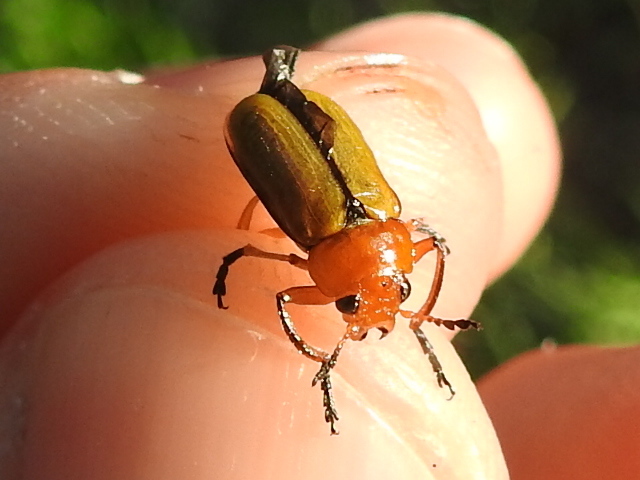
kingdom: Animalia
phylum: Arthropoda
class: Insecta
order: Coleoptera
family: Chrysomelidae
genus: Anomoea
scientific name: Anomoea laticlavia
